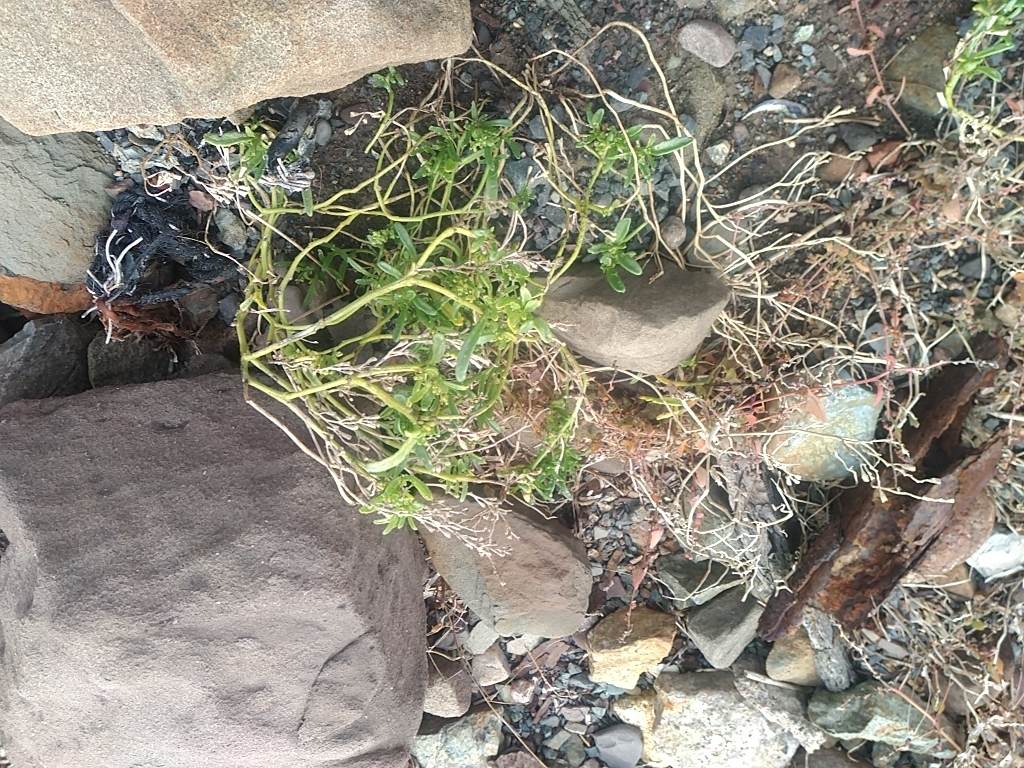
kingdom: Plantae
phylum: Tracheophyta
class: Magnoliopsida
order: Brassicales
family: Brassicaceae
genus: Cakile
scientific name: Cakile edentula
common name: American sea rocket
